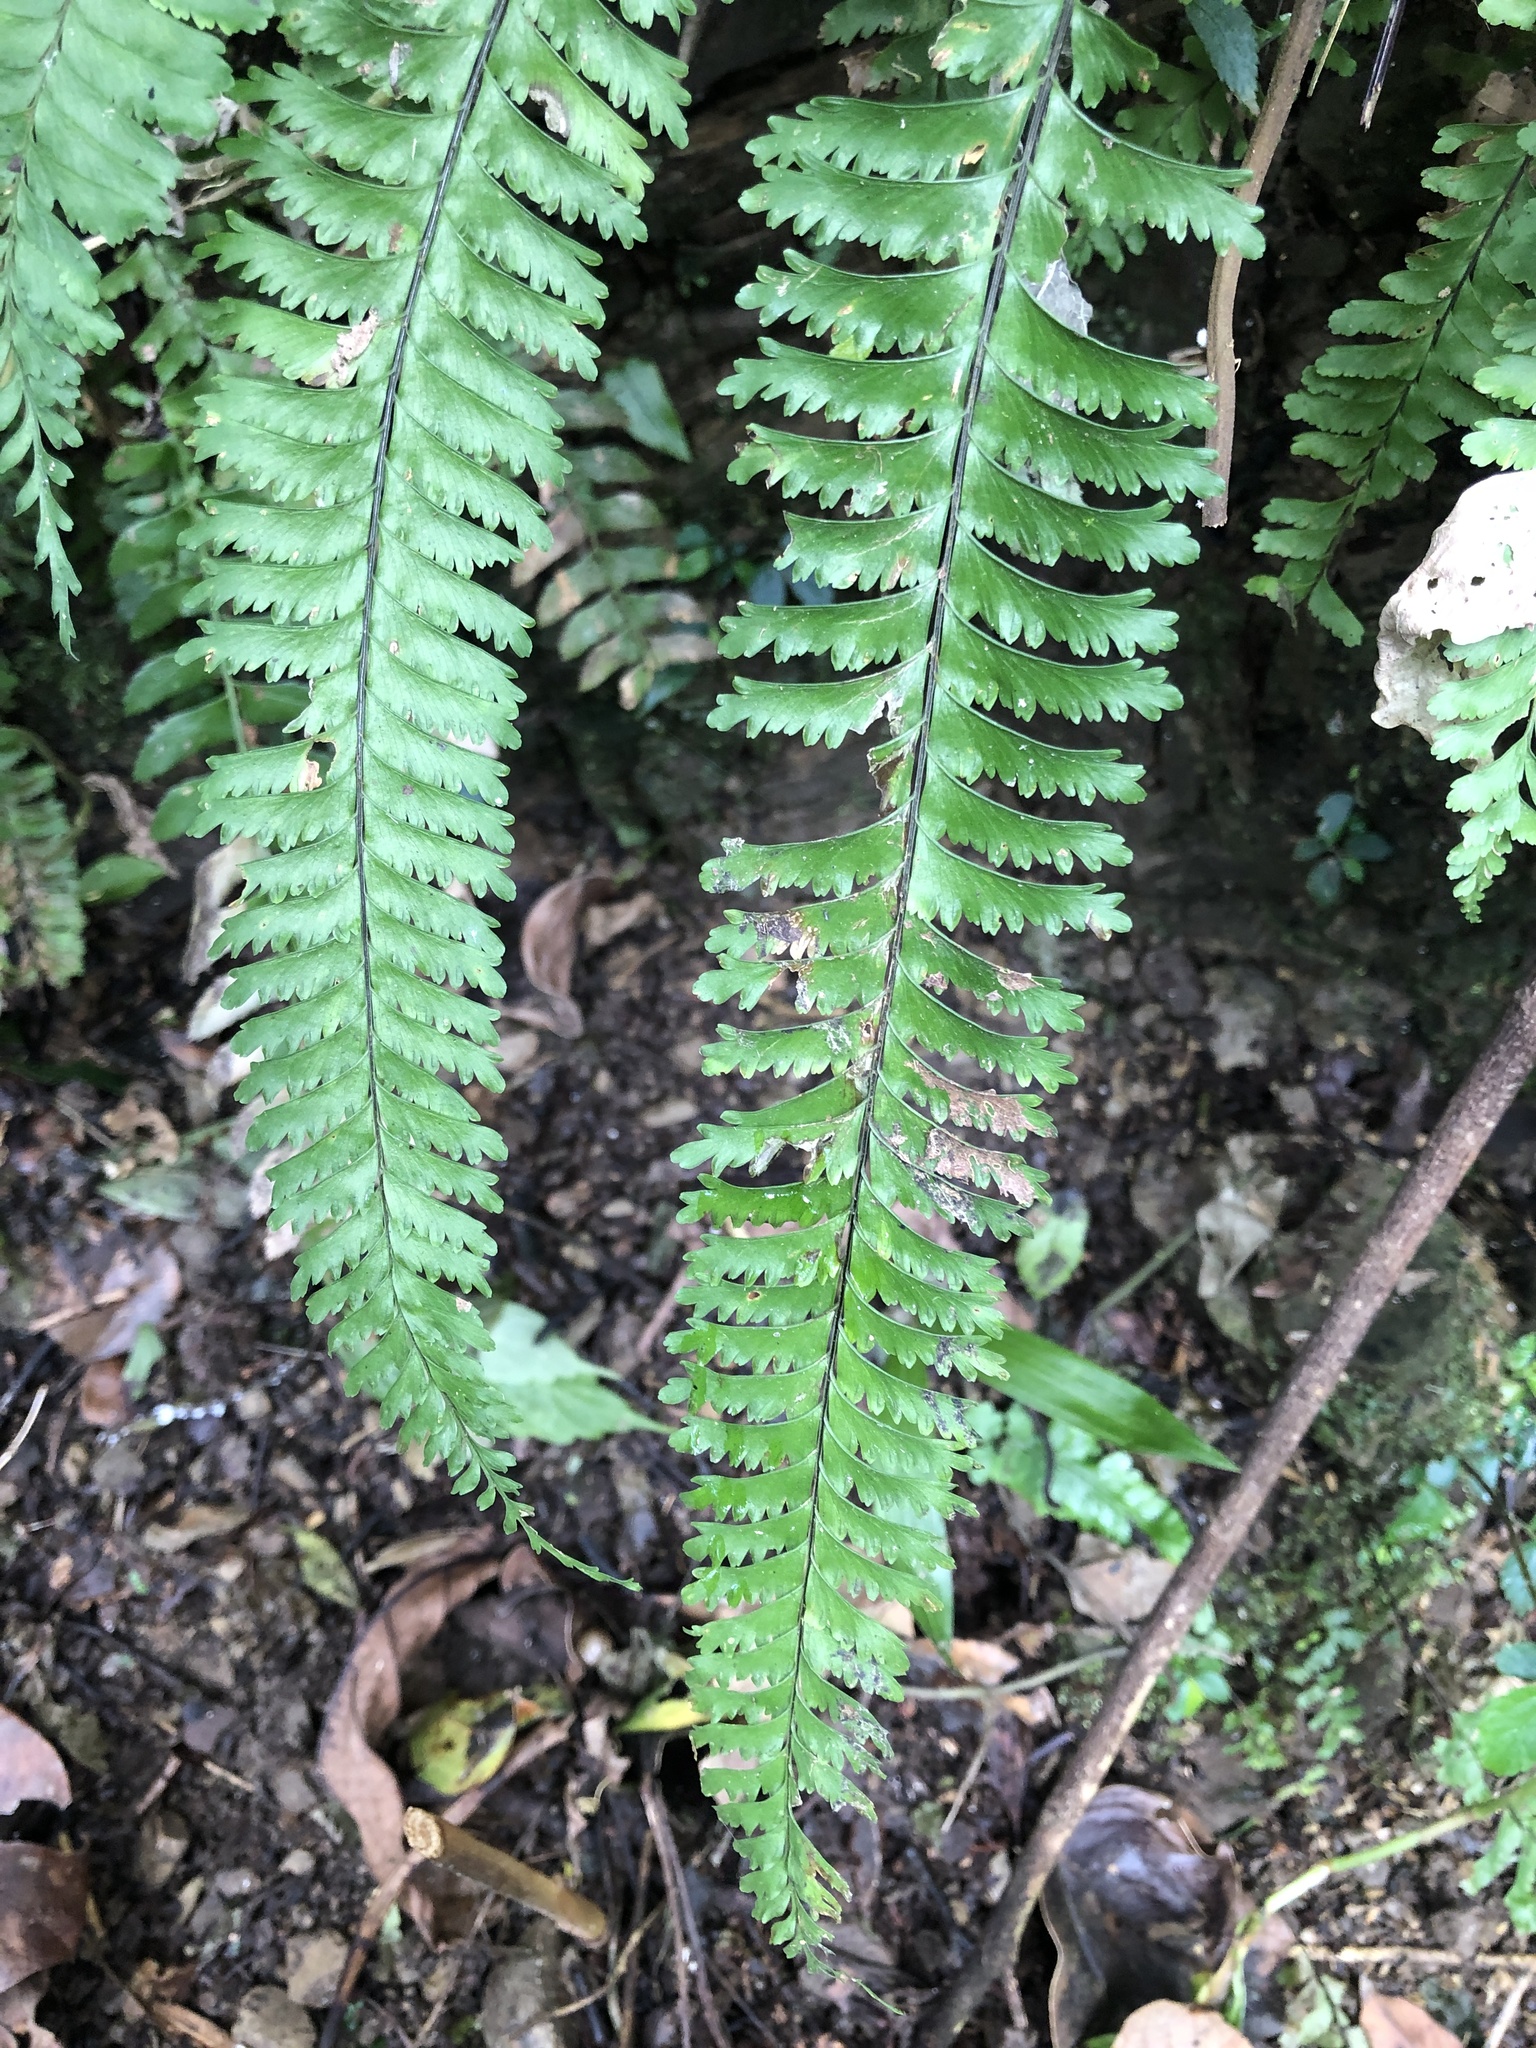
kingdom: Plantae
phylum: Tracheophyta
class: Polypodiopsida
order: Polypodiales
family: Aspleniaceae
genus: Hymenasplenium
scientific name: Hymenasplenium cheilosorum
